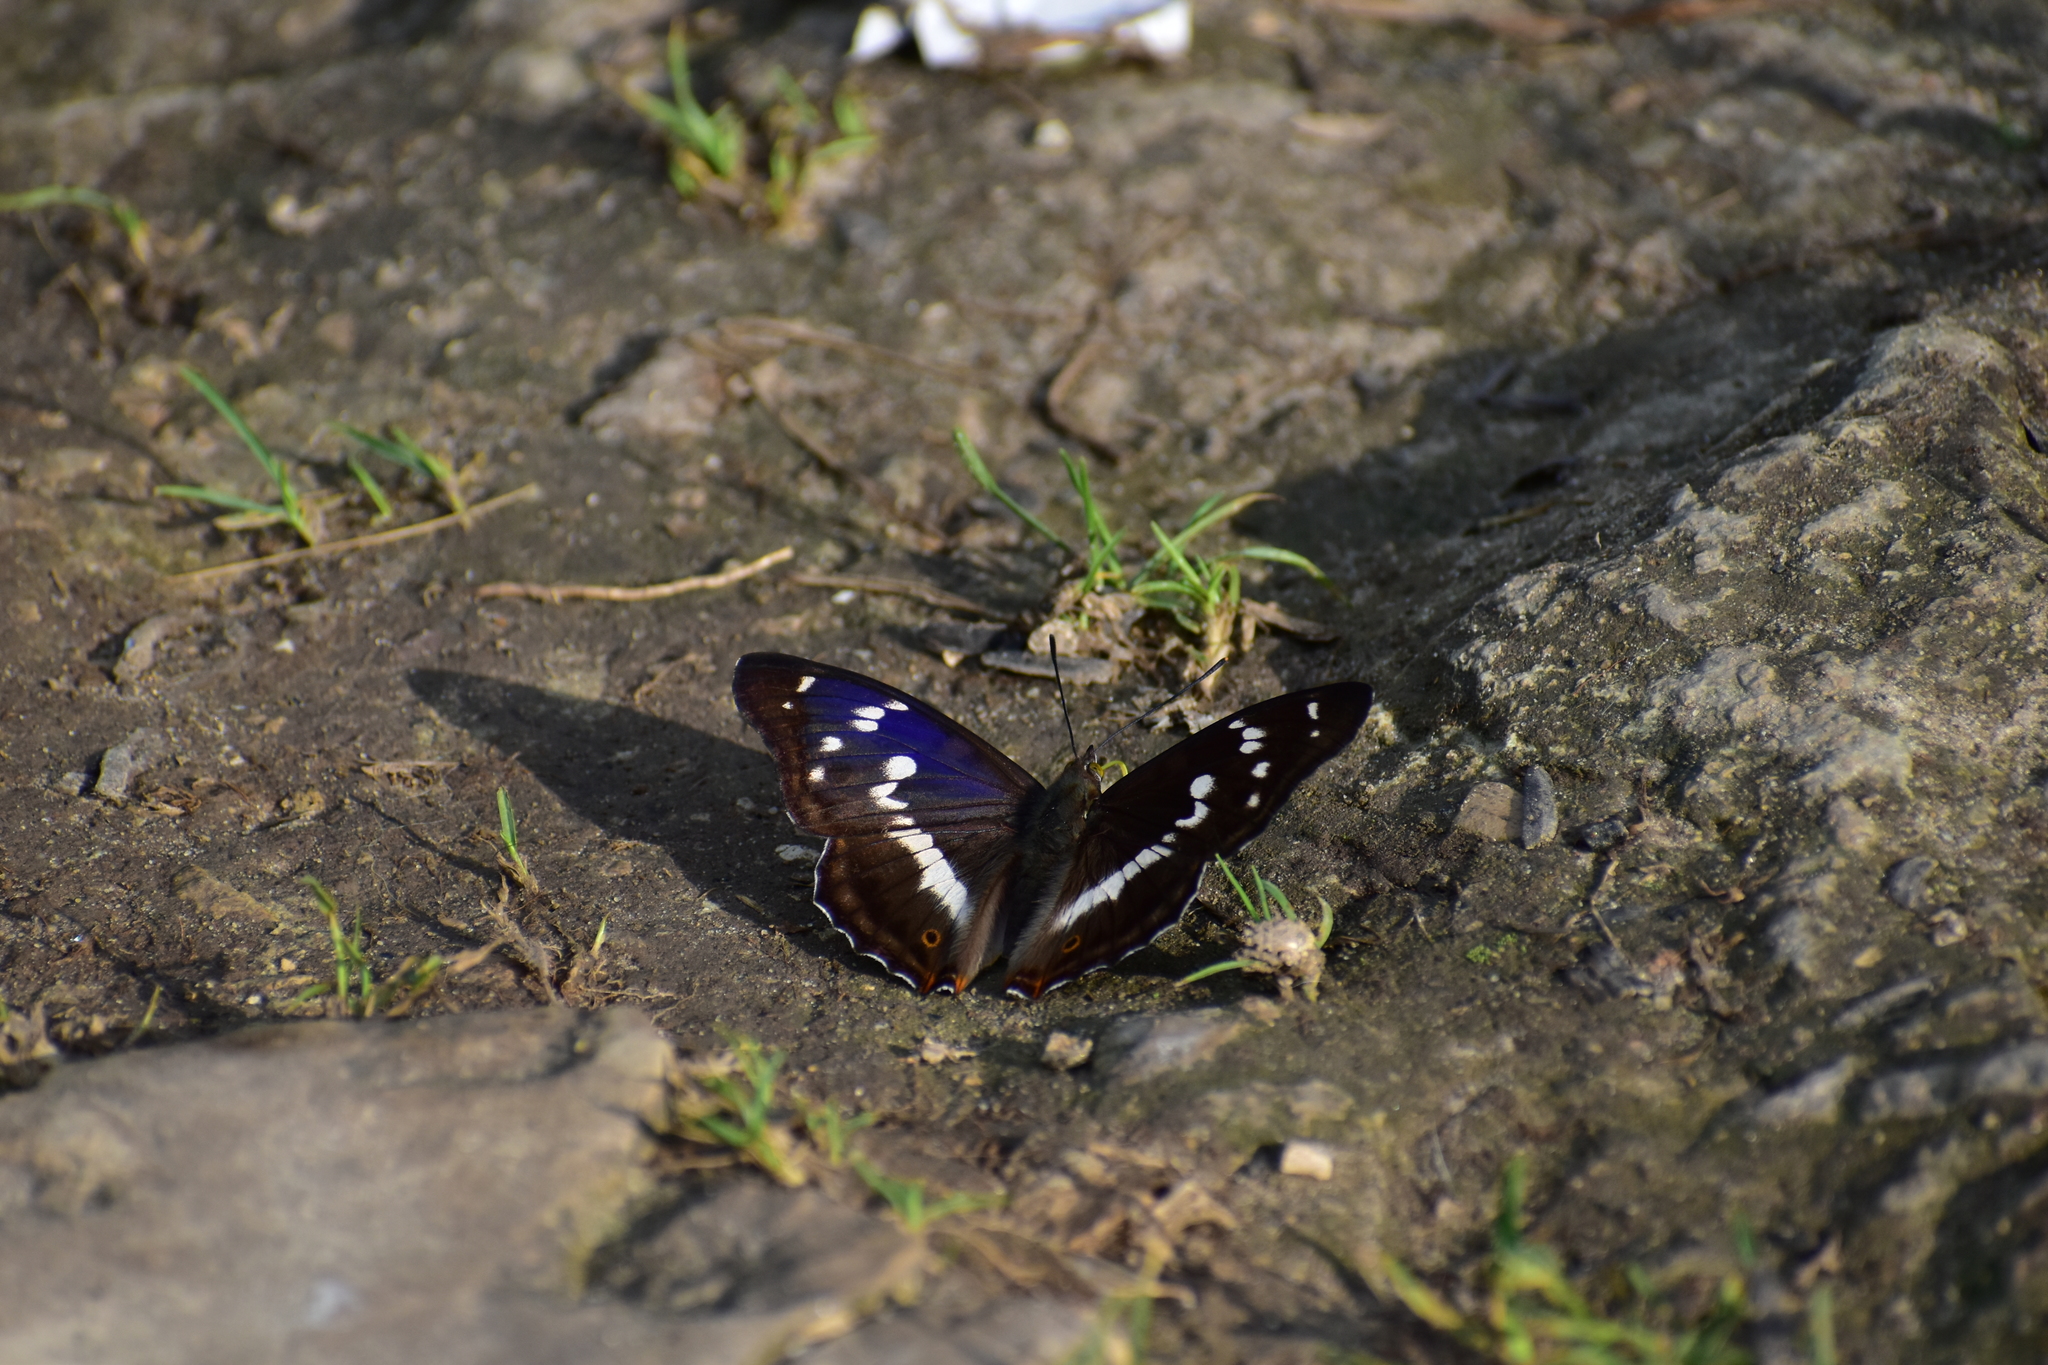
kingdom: Animalia
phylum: Arthropoda
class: Insecta
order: Lepidoptera
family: Nymphalidae
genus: Apatura
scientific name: Apatura iris
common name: Purple emperor
